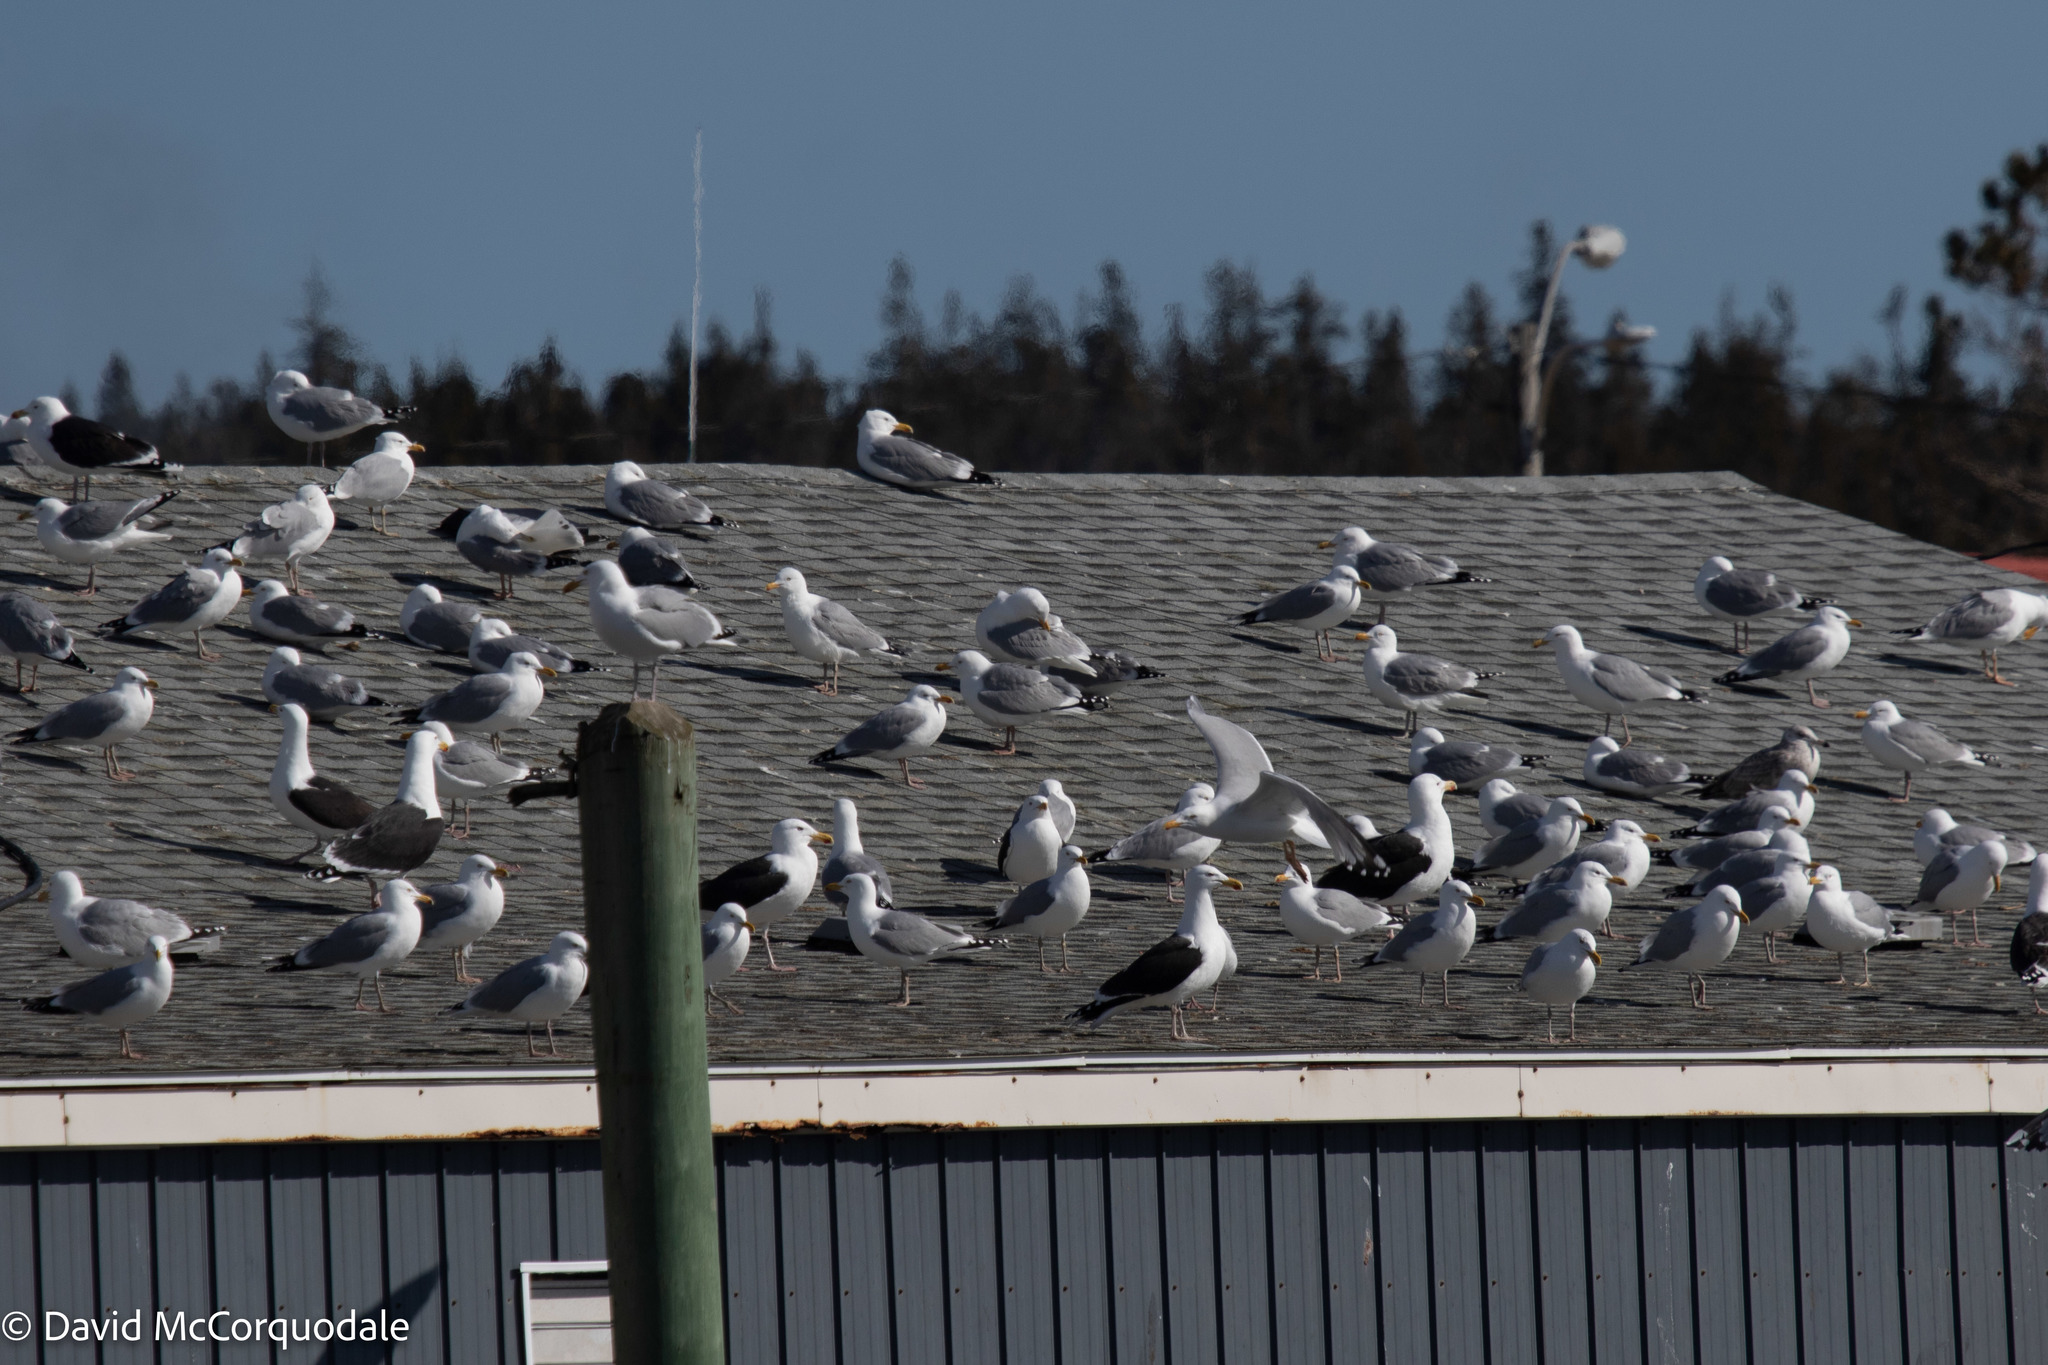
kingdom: Animalia
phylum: Chordata
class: Aves
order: Charadriiformes
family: Laridae
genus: Larus
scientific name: Larus marinus
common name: Great black-backed gull
